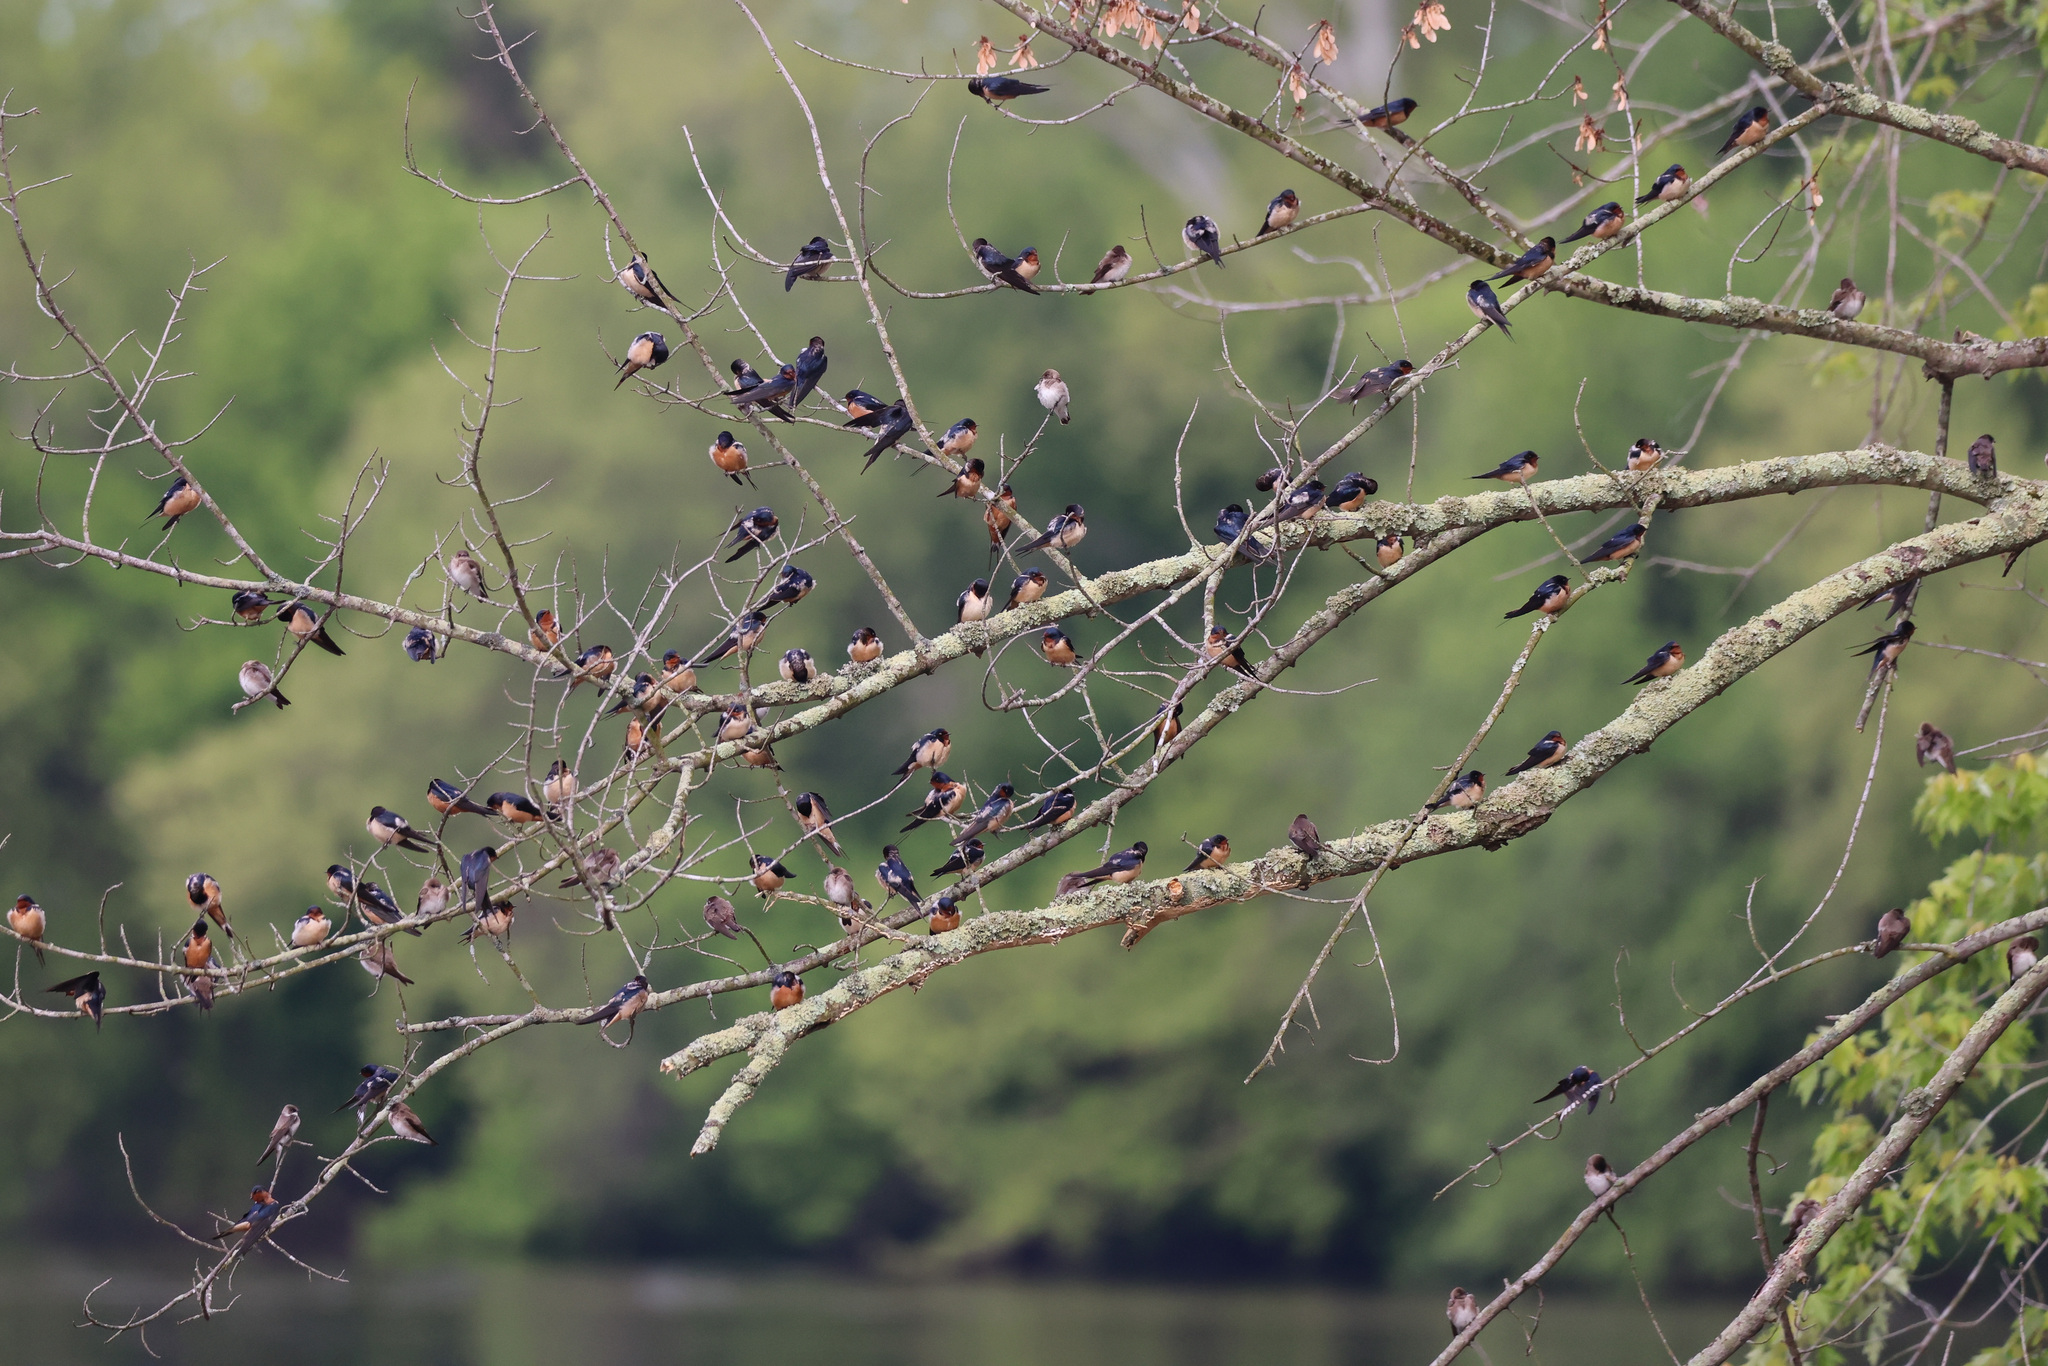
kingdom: Animalia
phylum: Chordata
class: Aves
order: Passeriformes
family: Hirundinidae
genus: Hirundo
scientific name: Hirundo rustica
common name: Barn swallow
